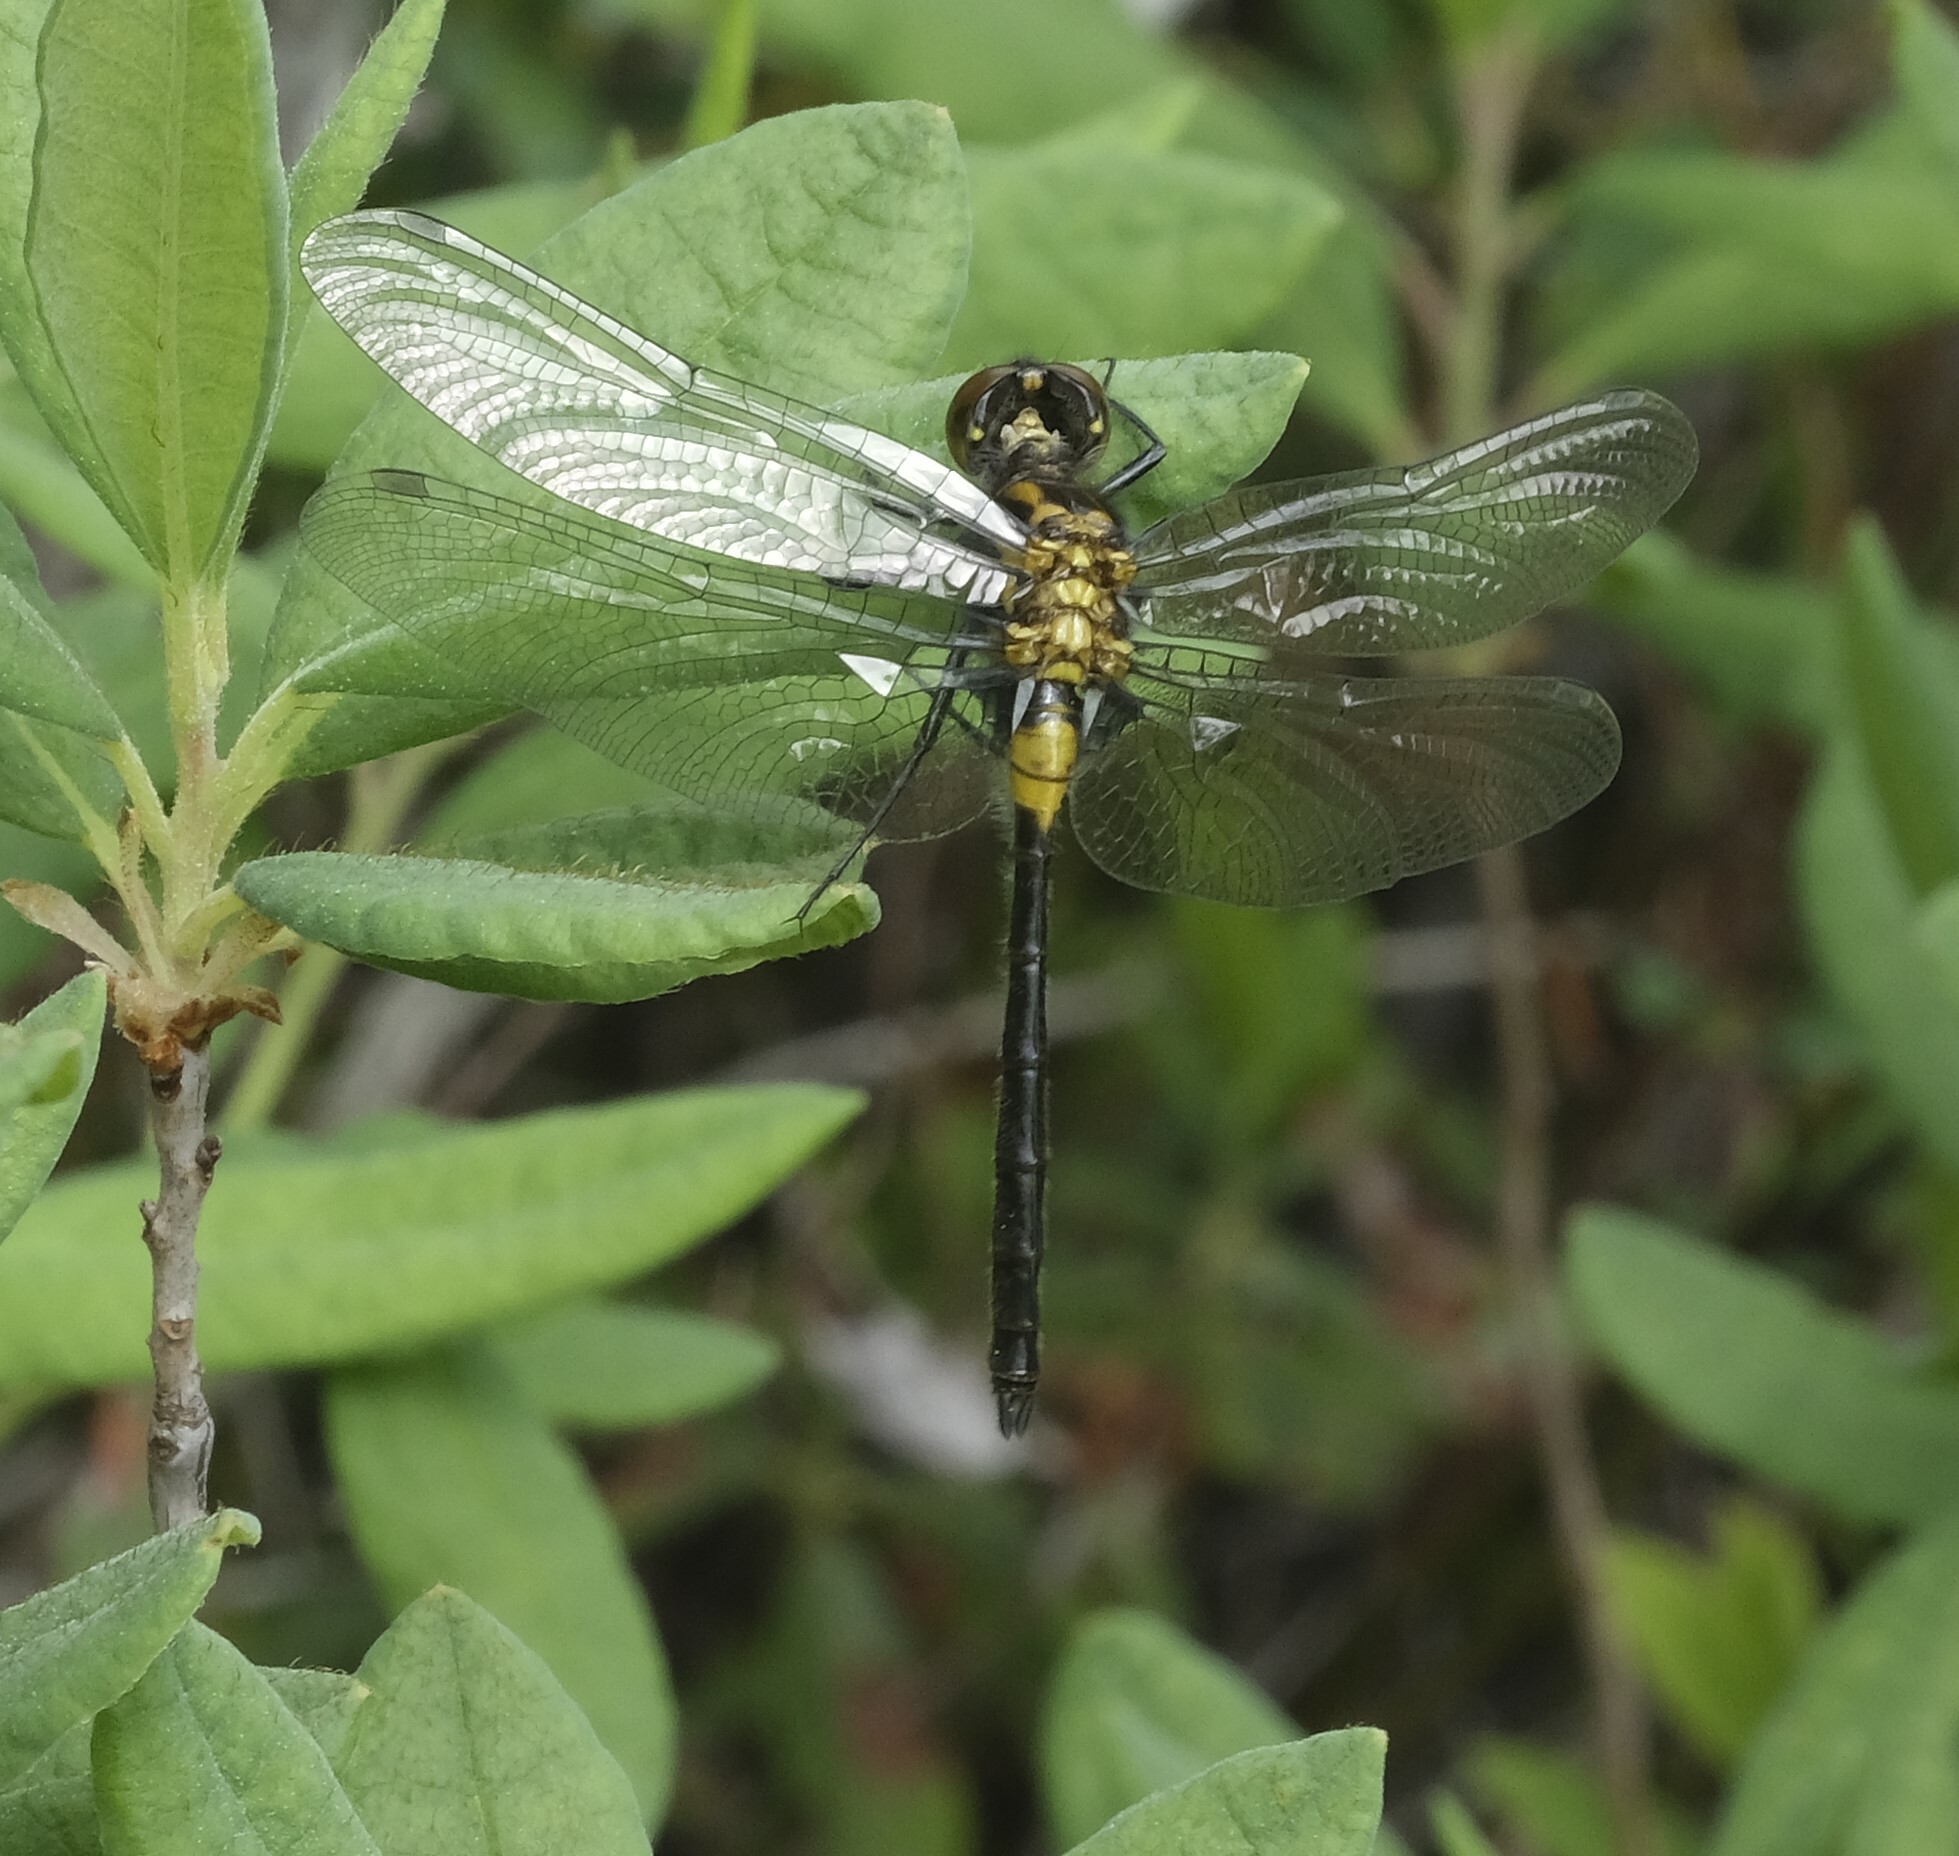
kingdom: Animalia
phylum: Arthropoda
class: Insecta
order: Odonata
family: Libellulidae
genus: Leucorrhinia
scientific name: Leucorrhinia glacialis
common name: Crimson-ringed whiteface
